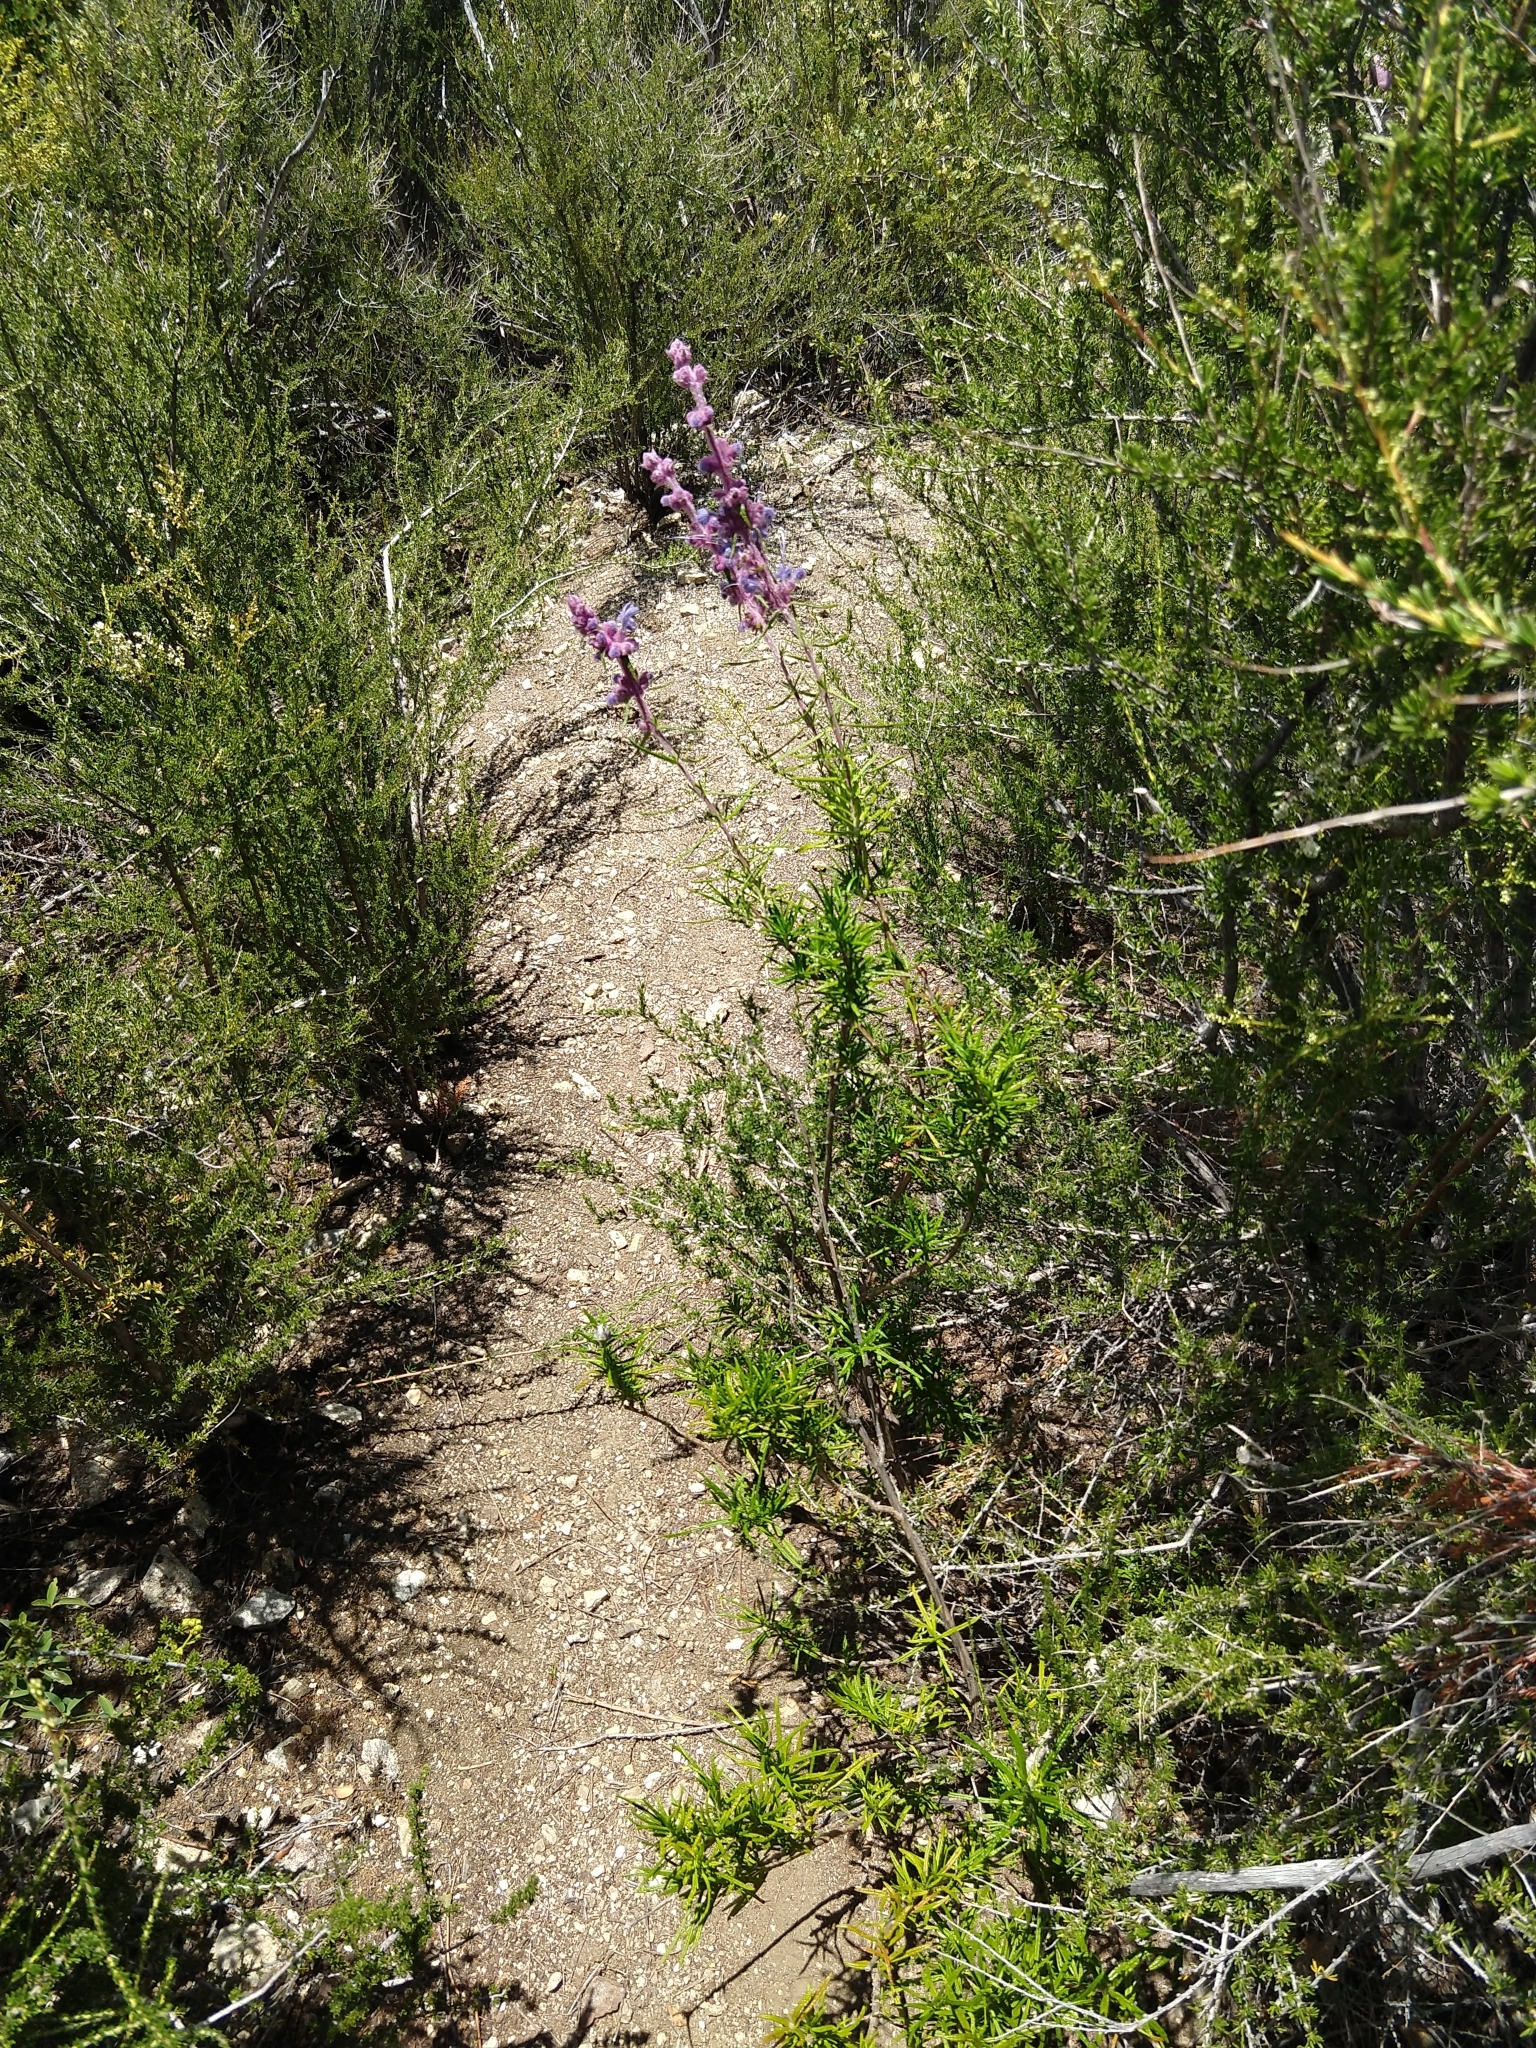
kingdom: Plantae
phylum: Tracheophyta
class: Magnoliopsida
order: Lamiales
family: Lamiaceae
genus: Trichostema
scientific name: Trichostema lanatum
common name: Woolly bluecurls
